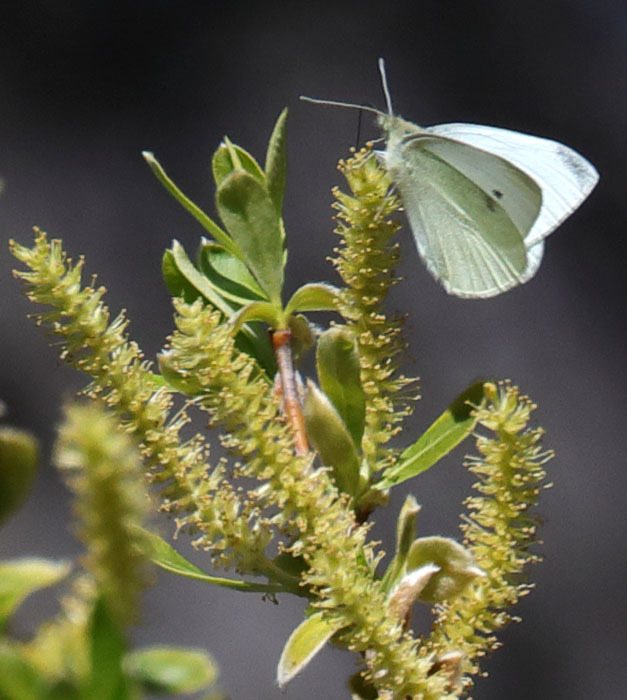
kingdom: Animalia
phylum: Arthropoda
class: Insecta
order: Lepidoptera
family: Pieridae
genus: Pieris
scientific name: Pieris rapae
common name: Small white
